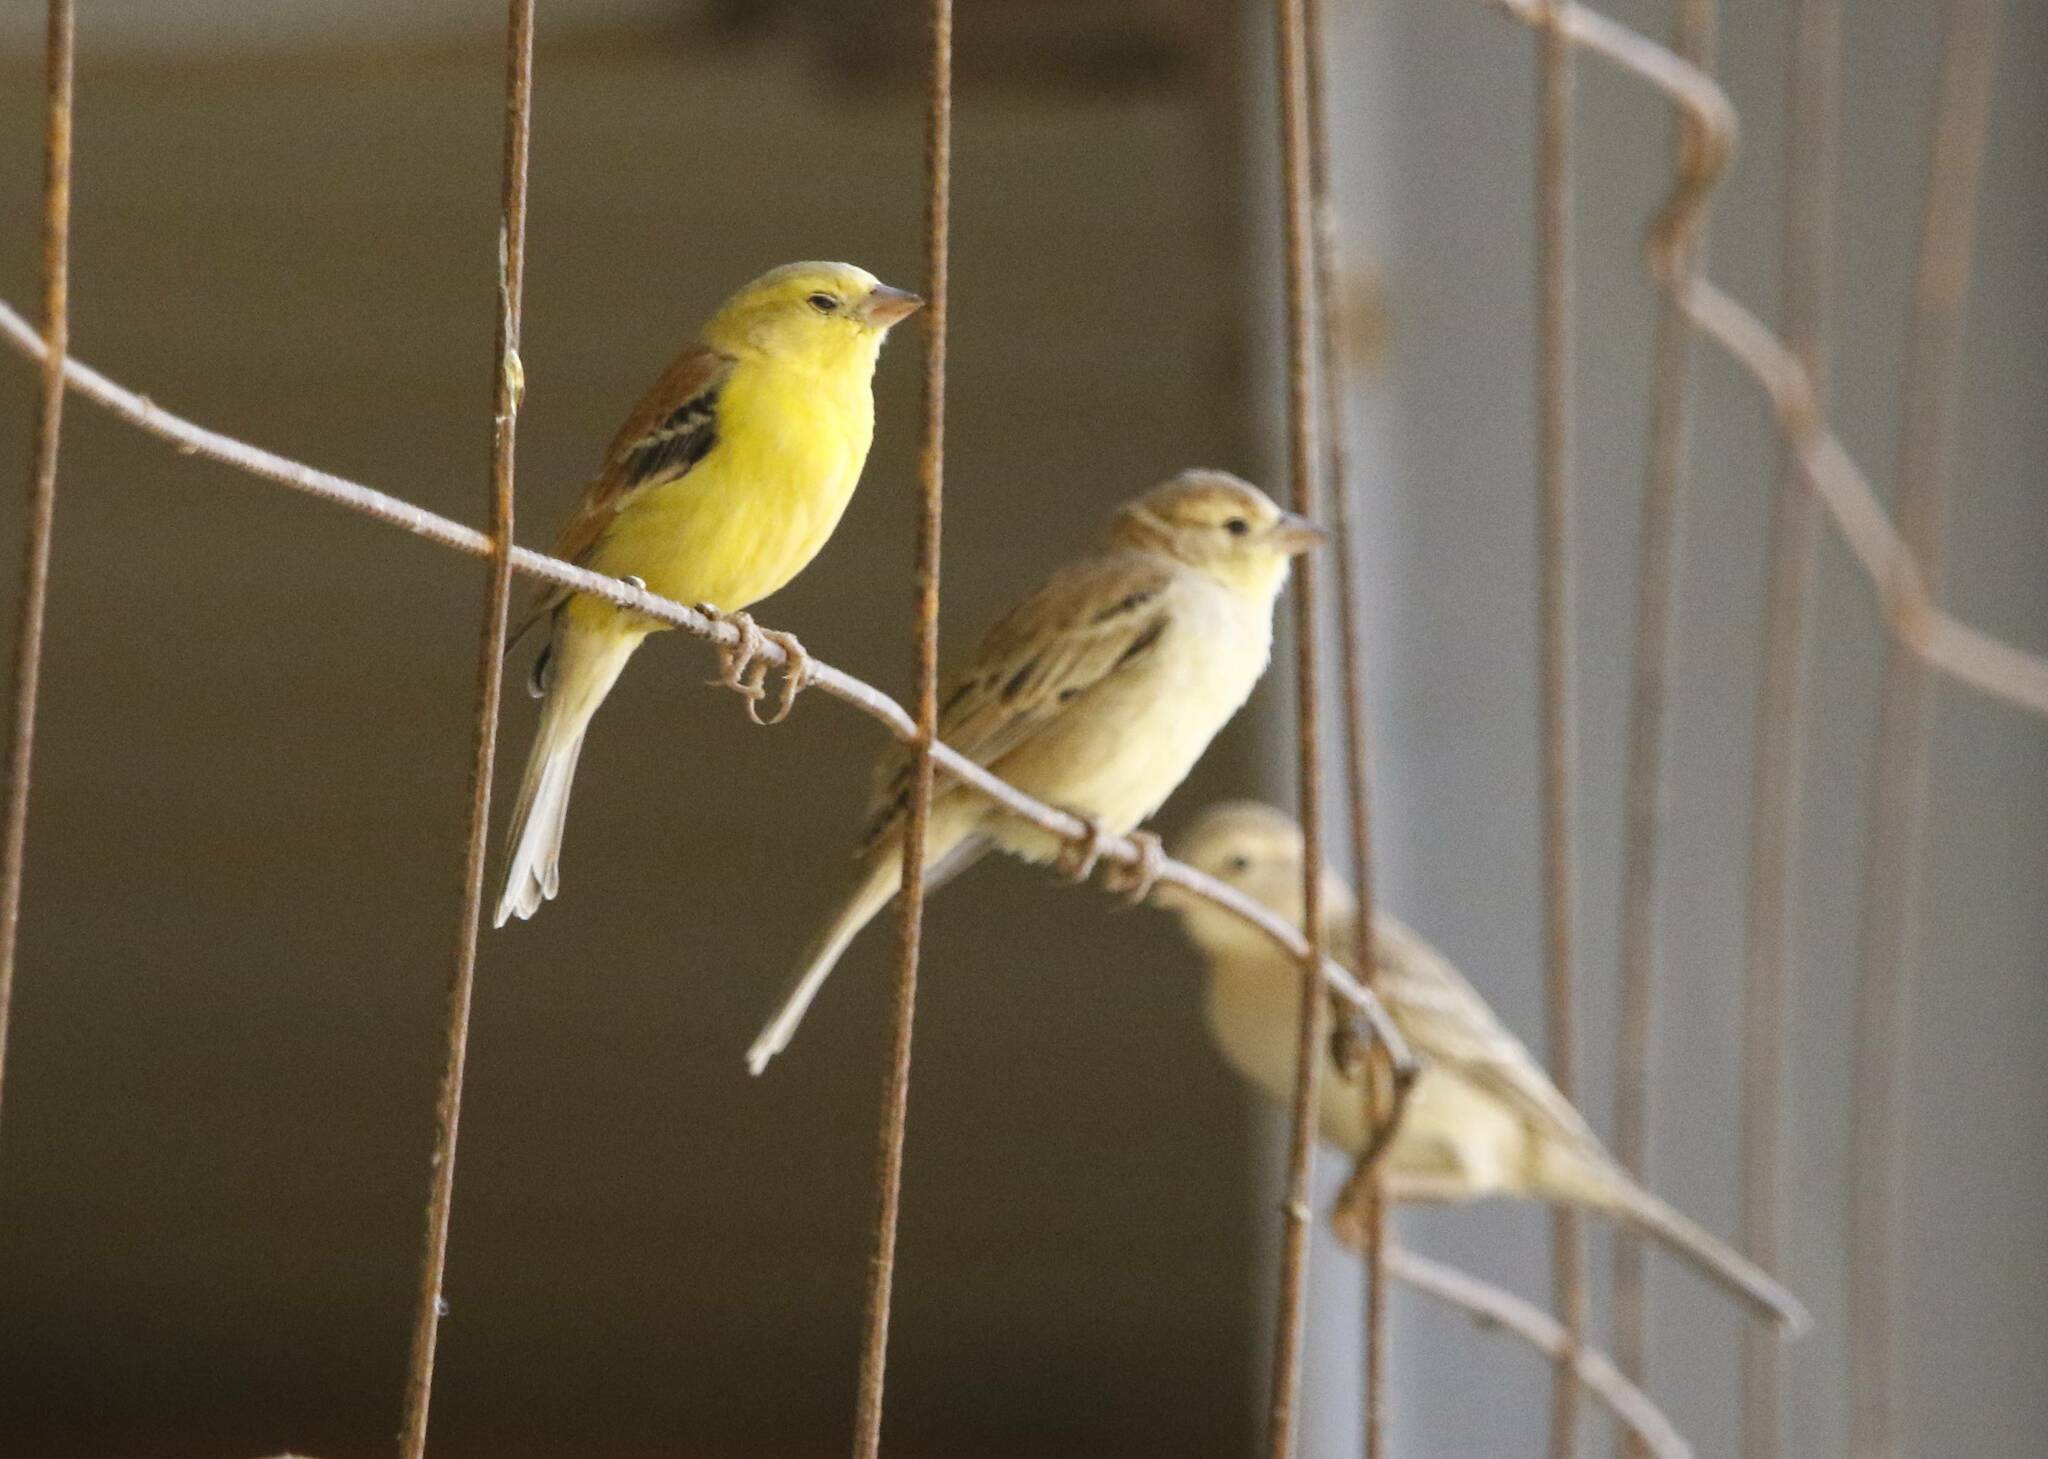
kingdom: Animalia
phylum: Chordata
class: Aves
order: Passeriformes
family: Passeridae
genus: Passer
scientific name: Passer luteus
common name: Sudan golden sparrow
